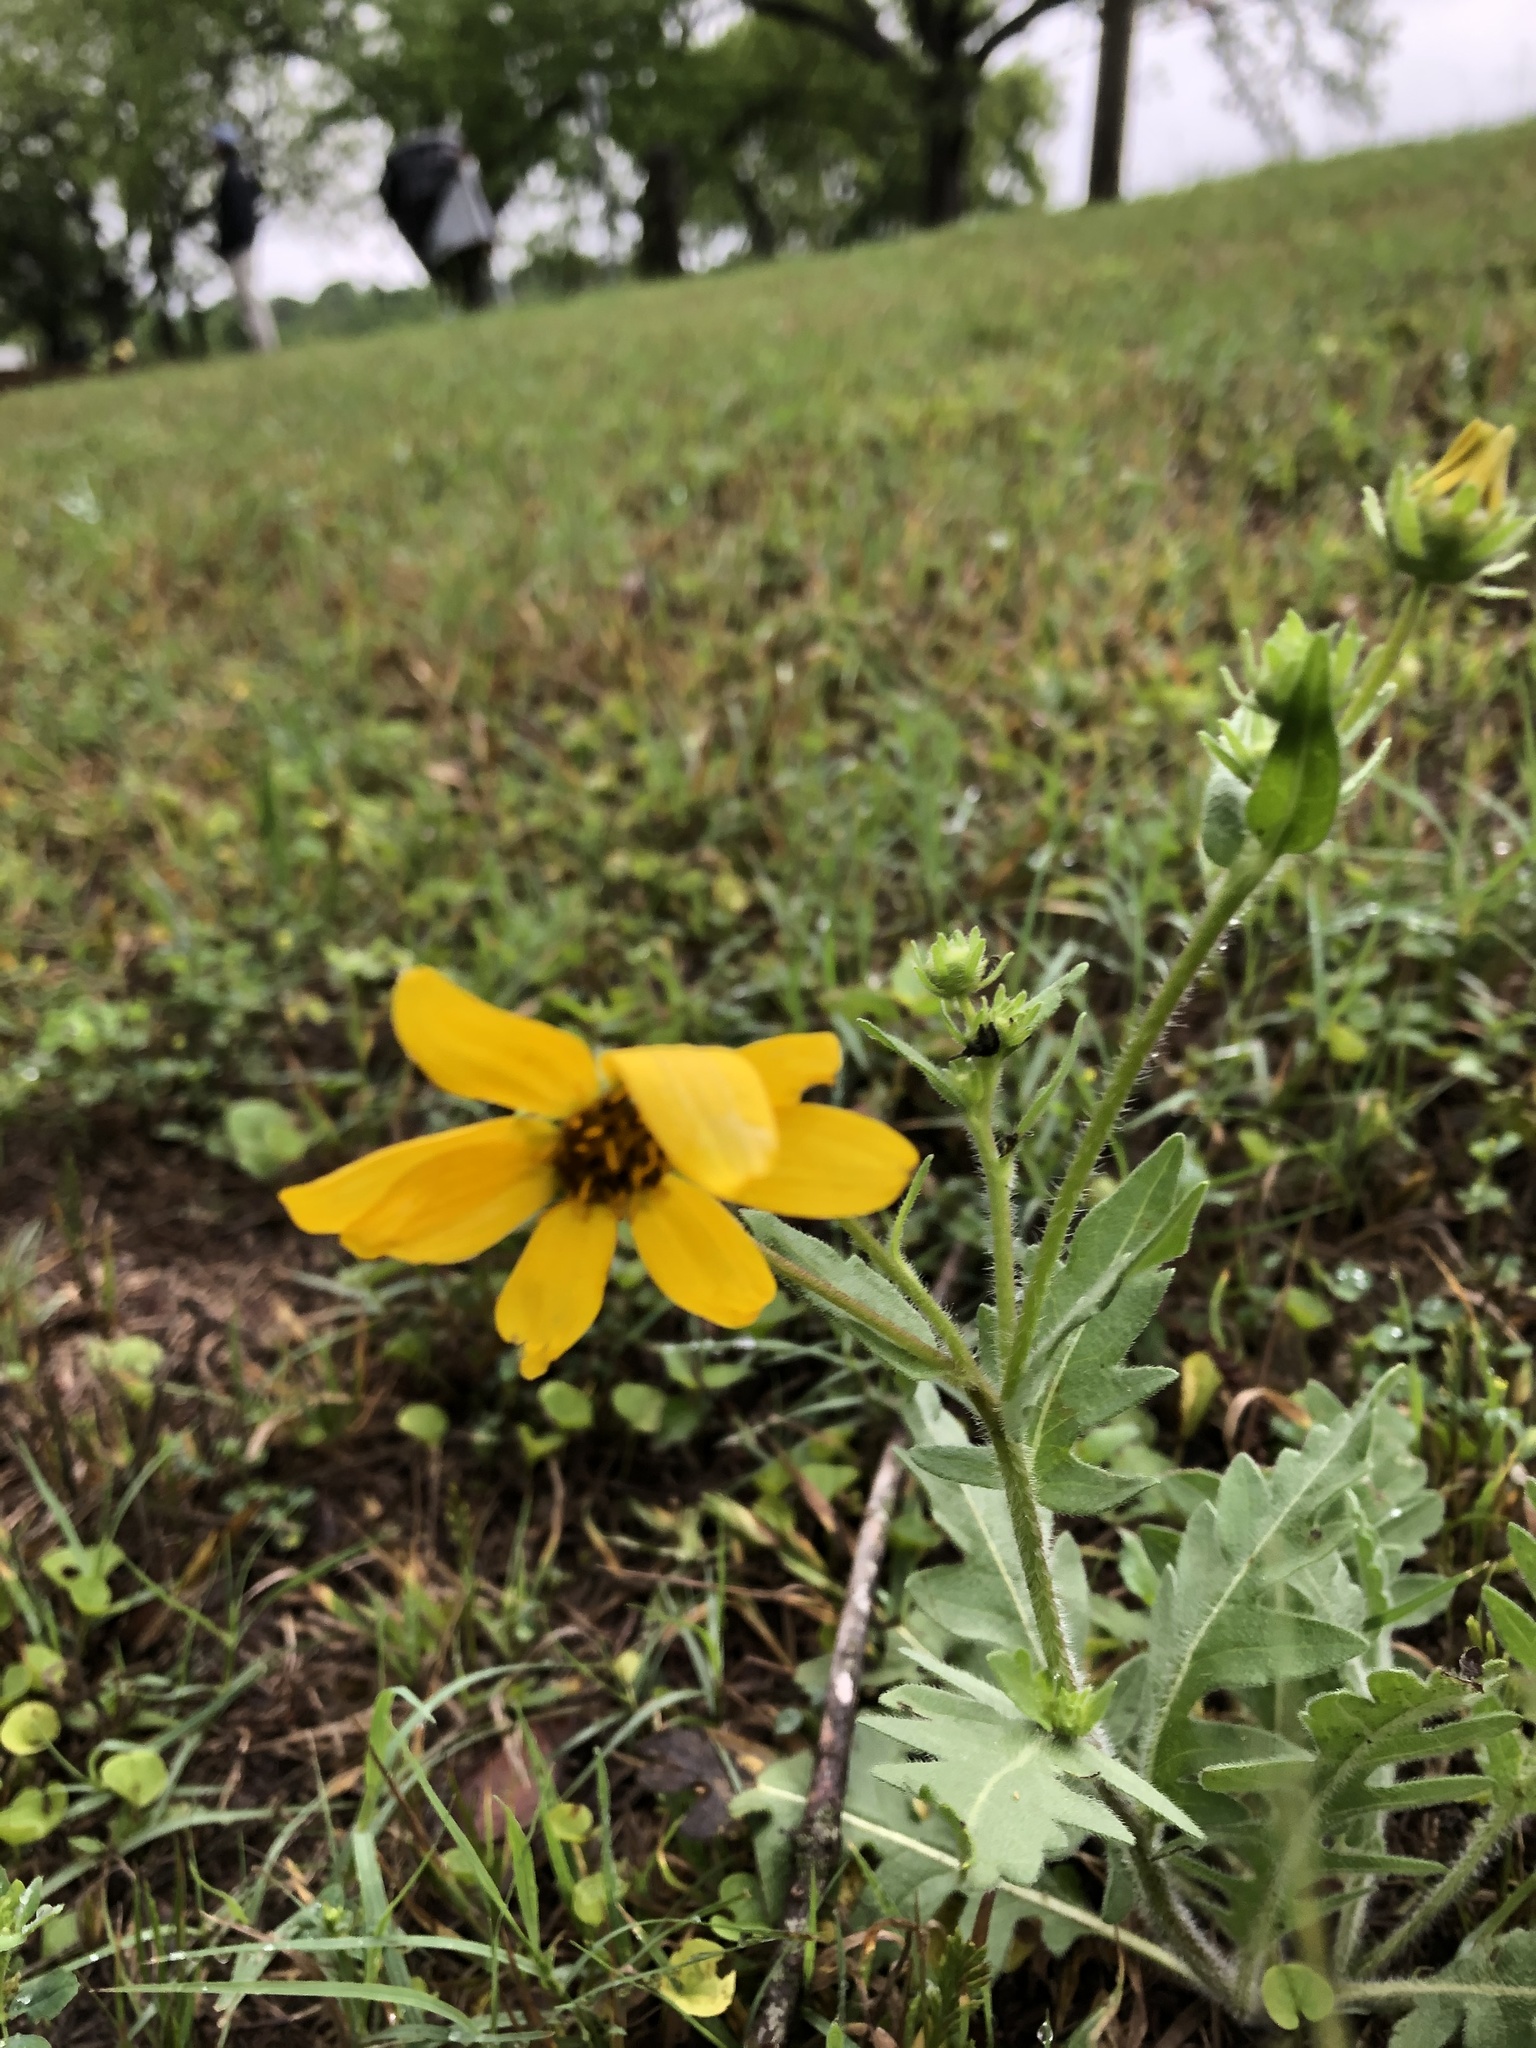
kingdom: Plantae
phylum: Tracheophyta
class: Magnoliopsida
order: Asterales
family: Asteraceae
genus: Engelmannia
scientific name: Engelmannia peristenia
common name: Engelmann's daisy
